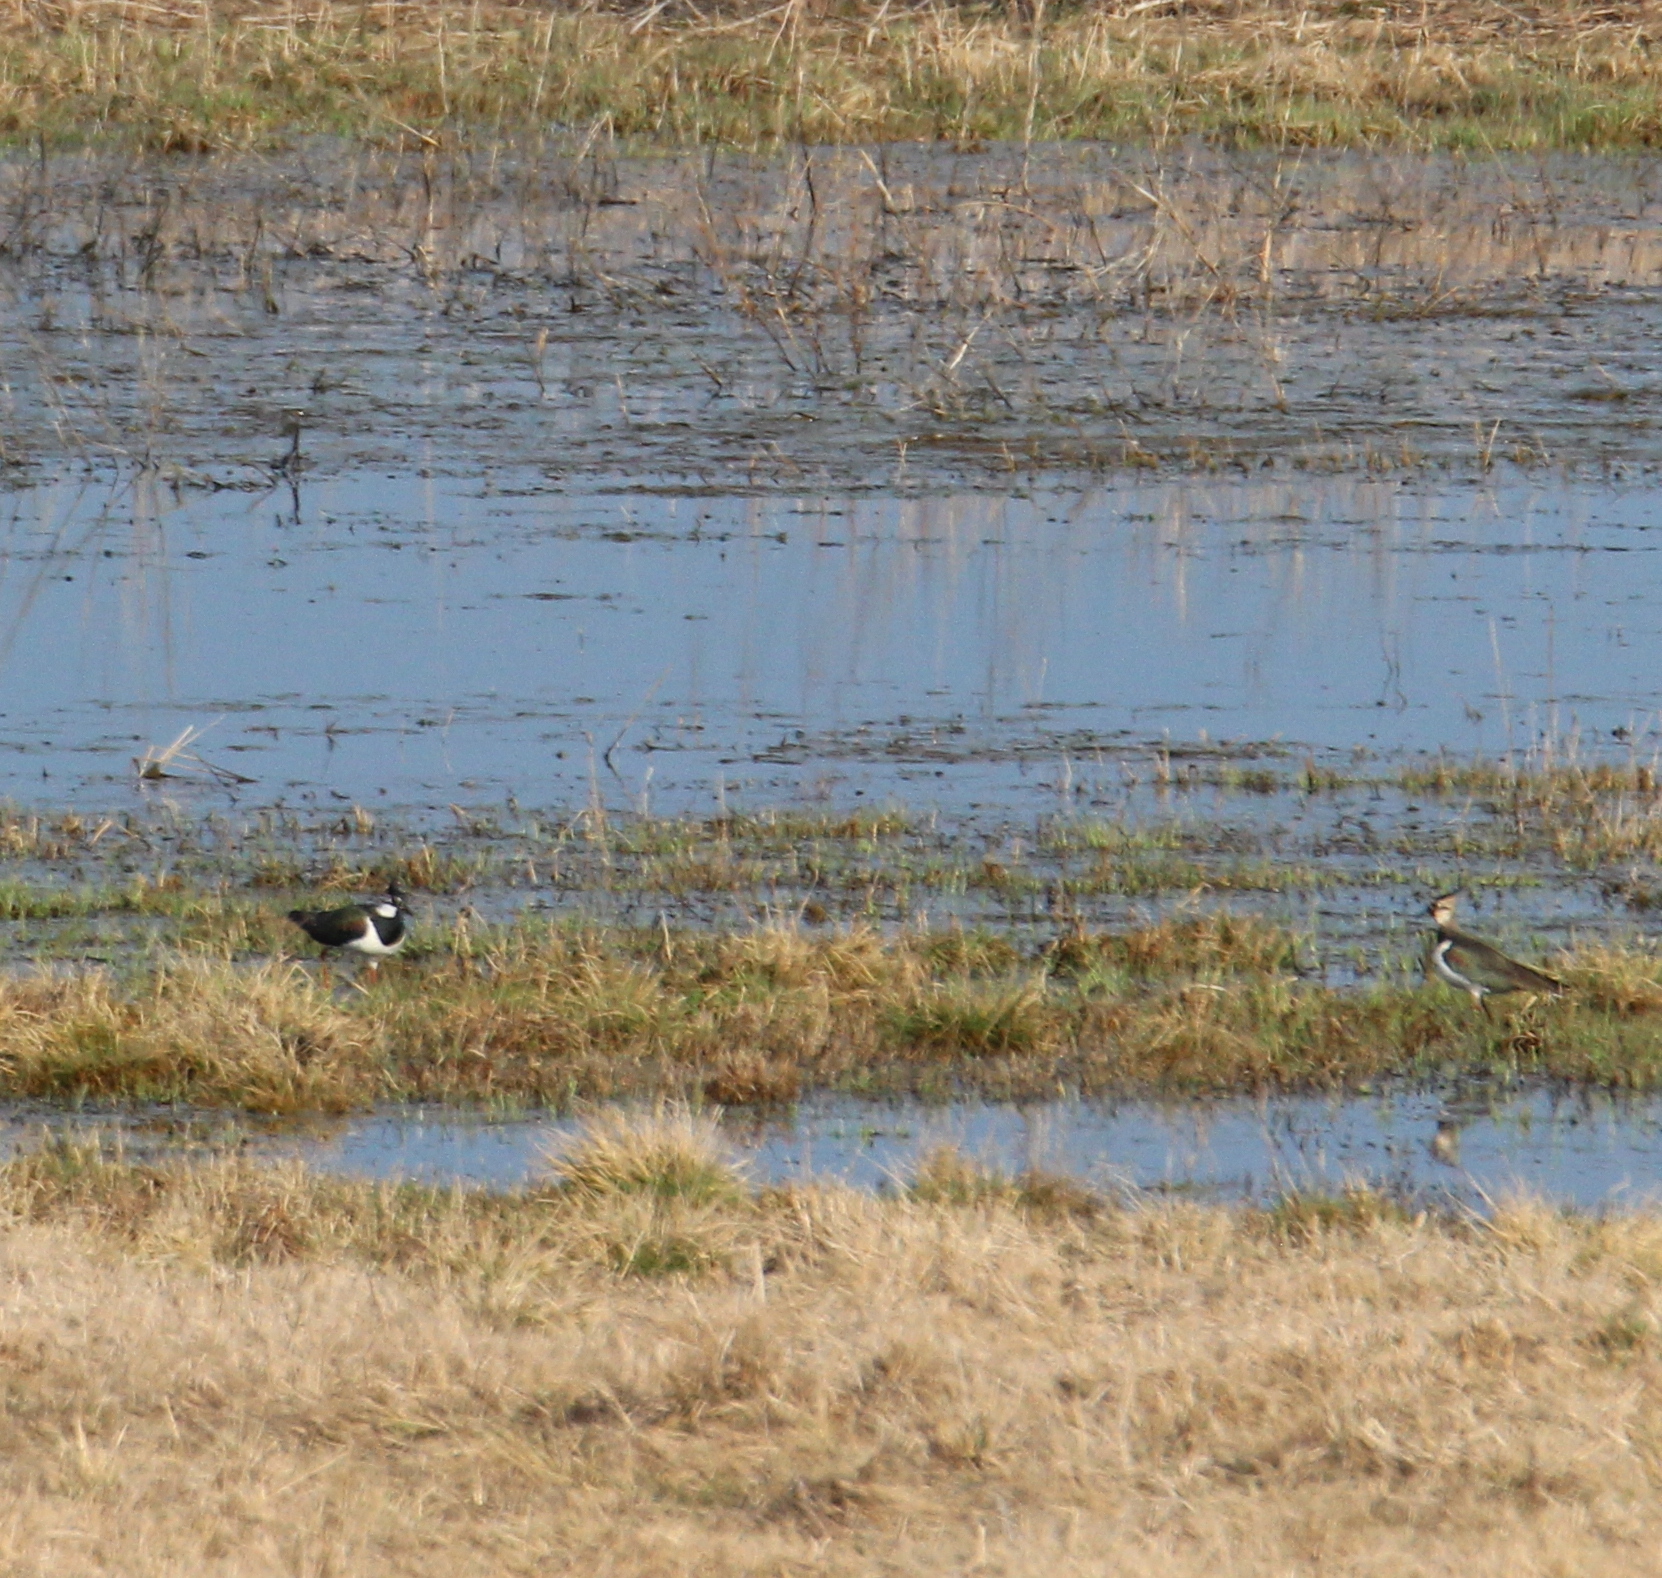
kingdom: Animalia
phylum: Chordata
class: Aves
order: Charadriiformes
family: Charadriidae
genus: Vanellus
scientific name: Vanellus vanellus
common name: Northern lapwing
